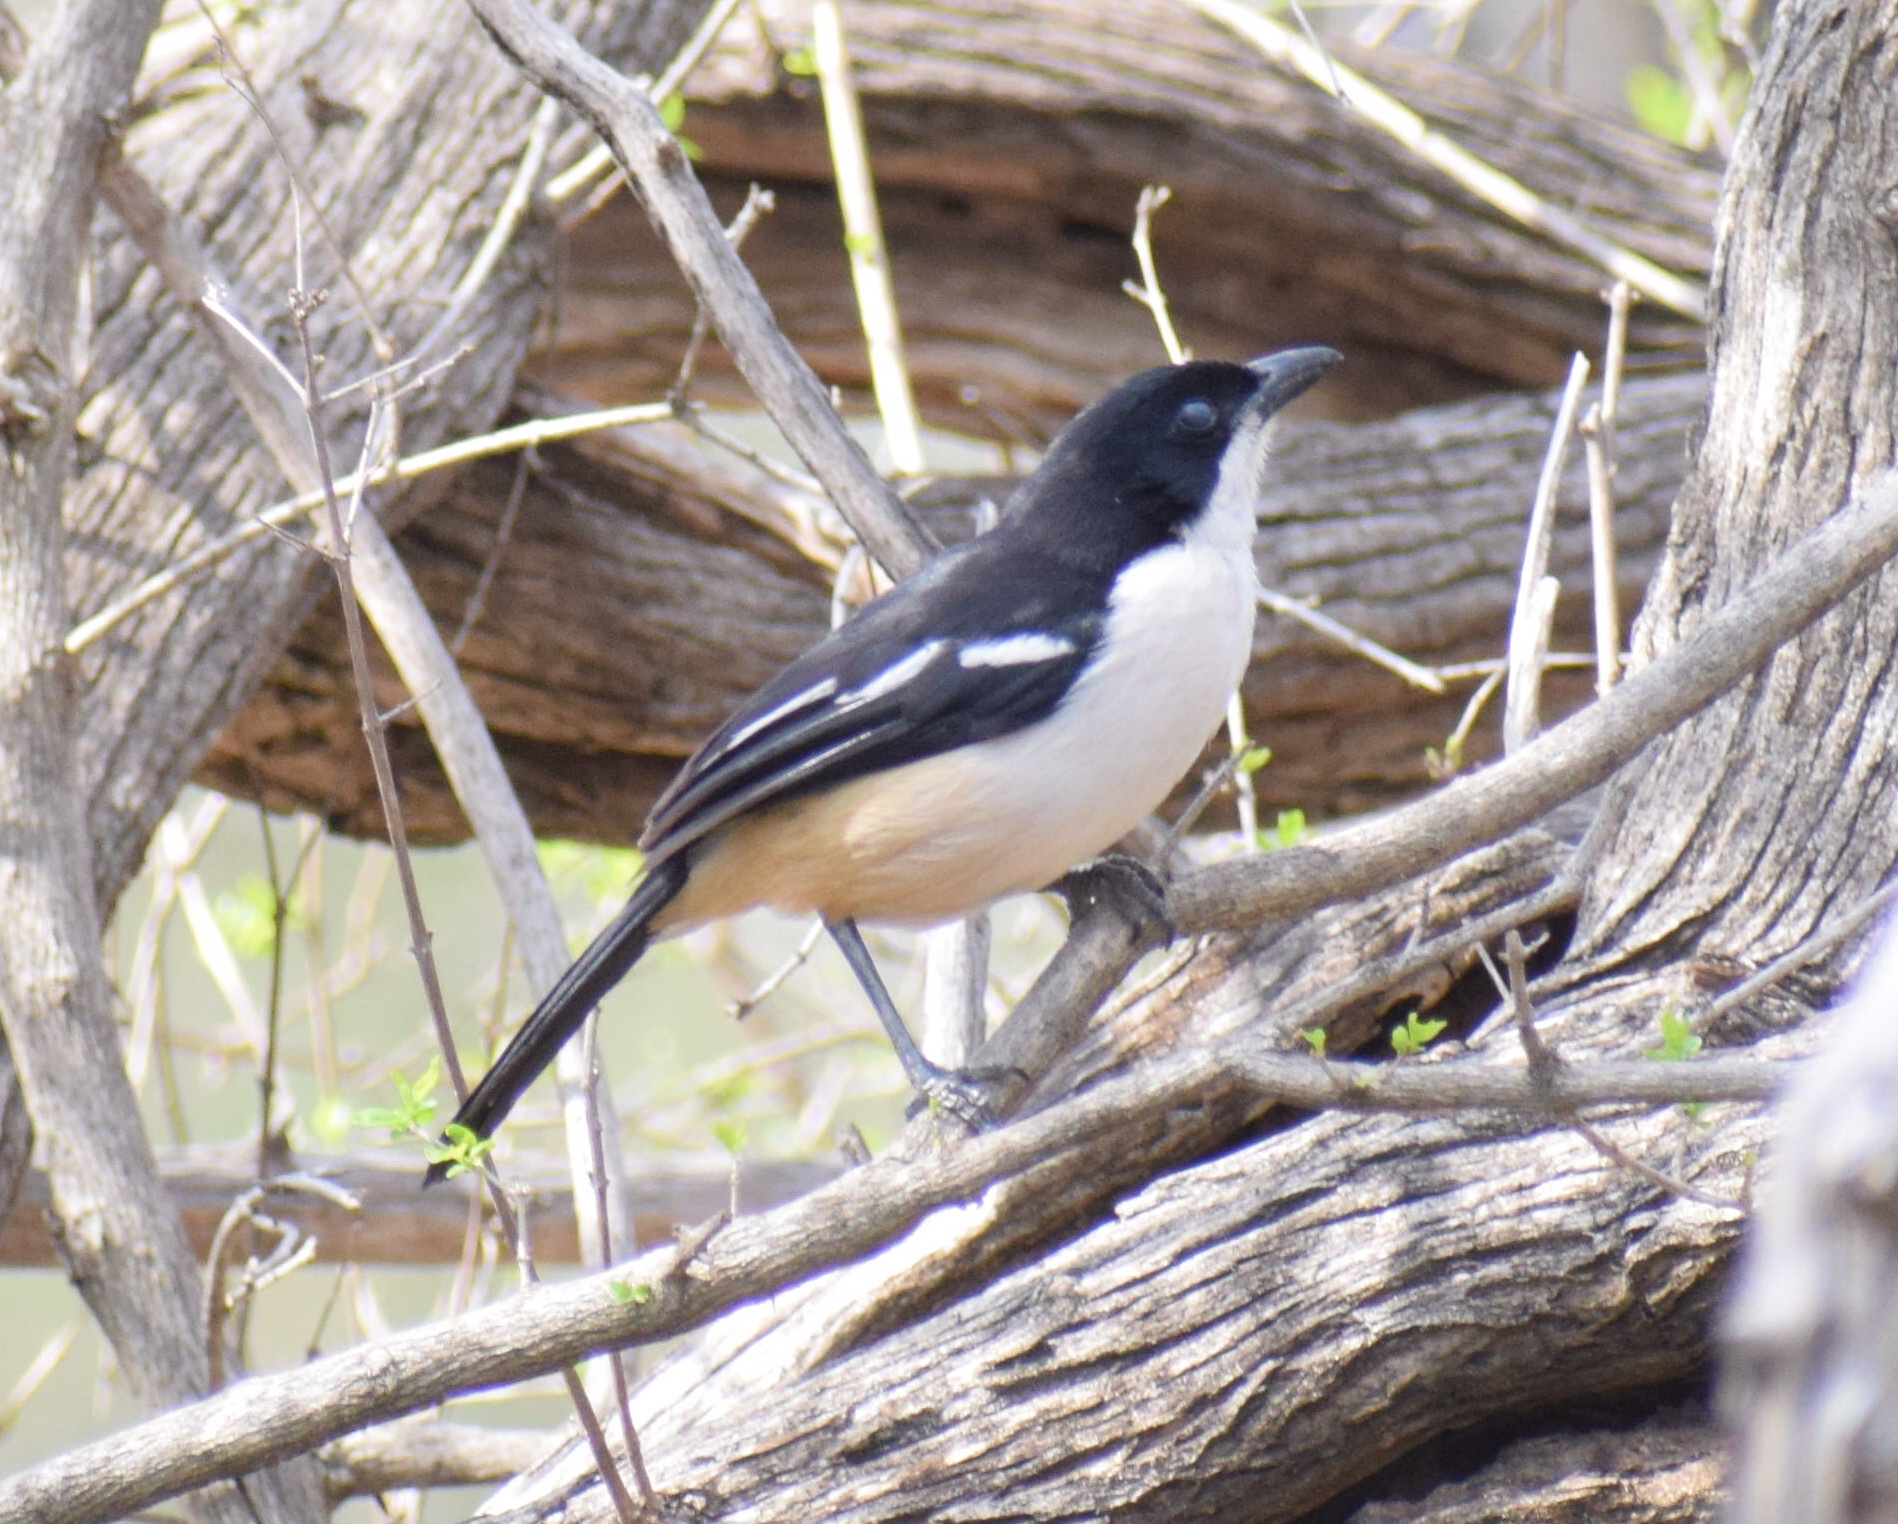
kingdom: Animalia
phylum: Chordata
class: Aves
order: Passeriformes
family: Malaconotidae
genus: Laniarius
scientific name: Laniarius ferrugineus
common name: Southern boubou
